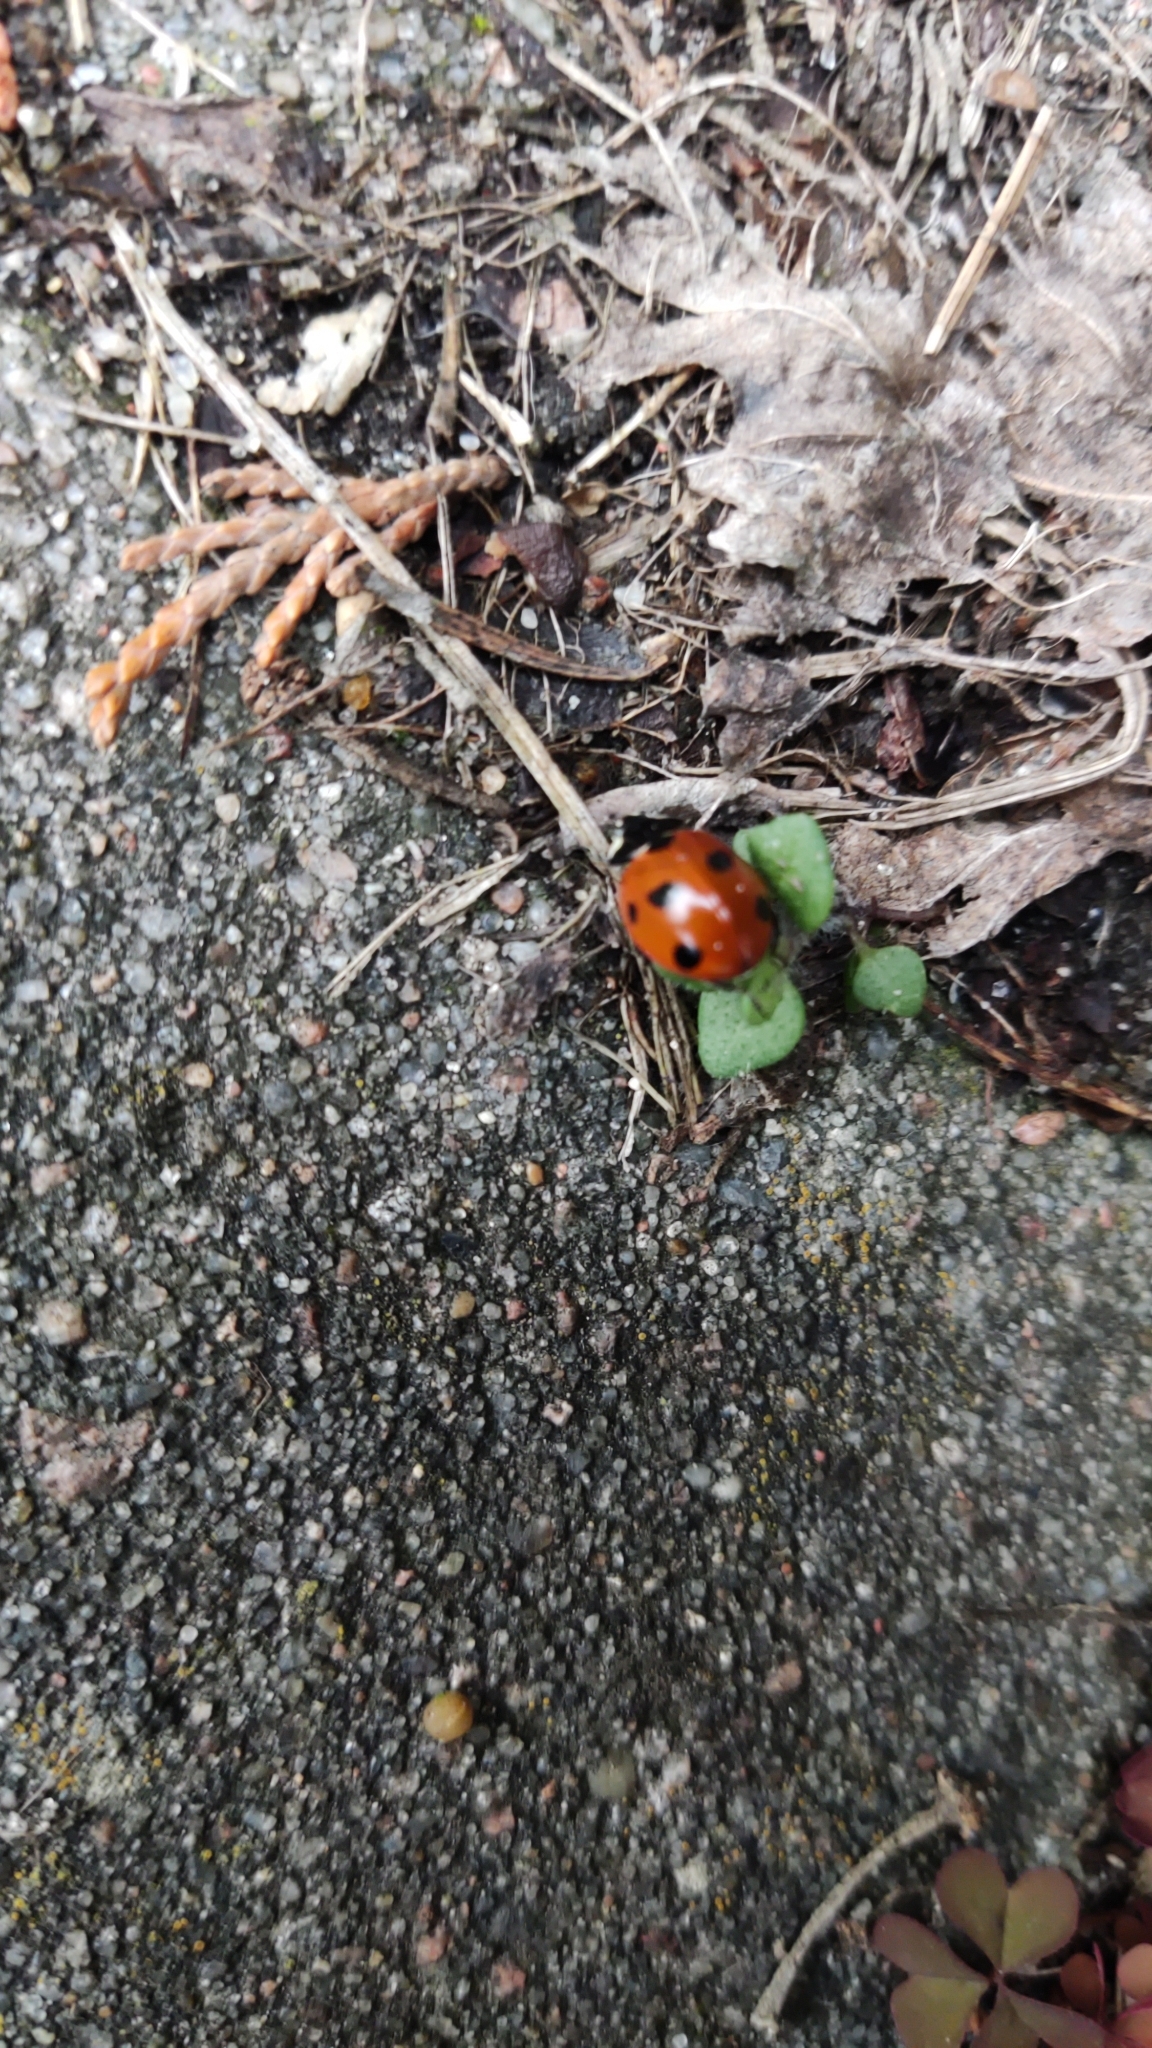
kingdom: Animalia
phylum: Arthropoda
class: Insecta
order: Coleoptera
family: Coccinellidae
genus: Coccinella
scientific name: Coccinella septempunctata
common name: Sevenspotted lady beetle
